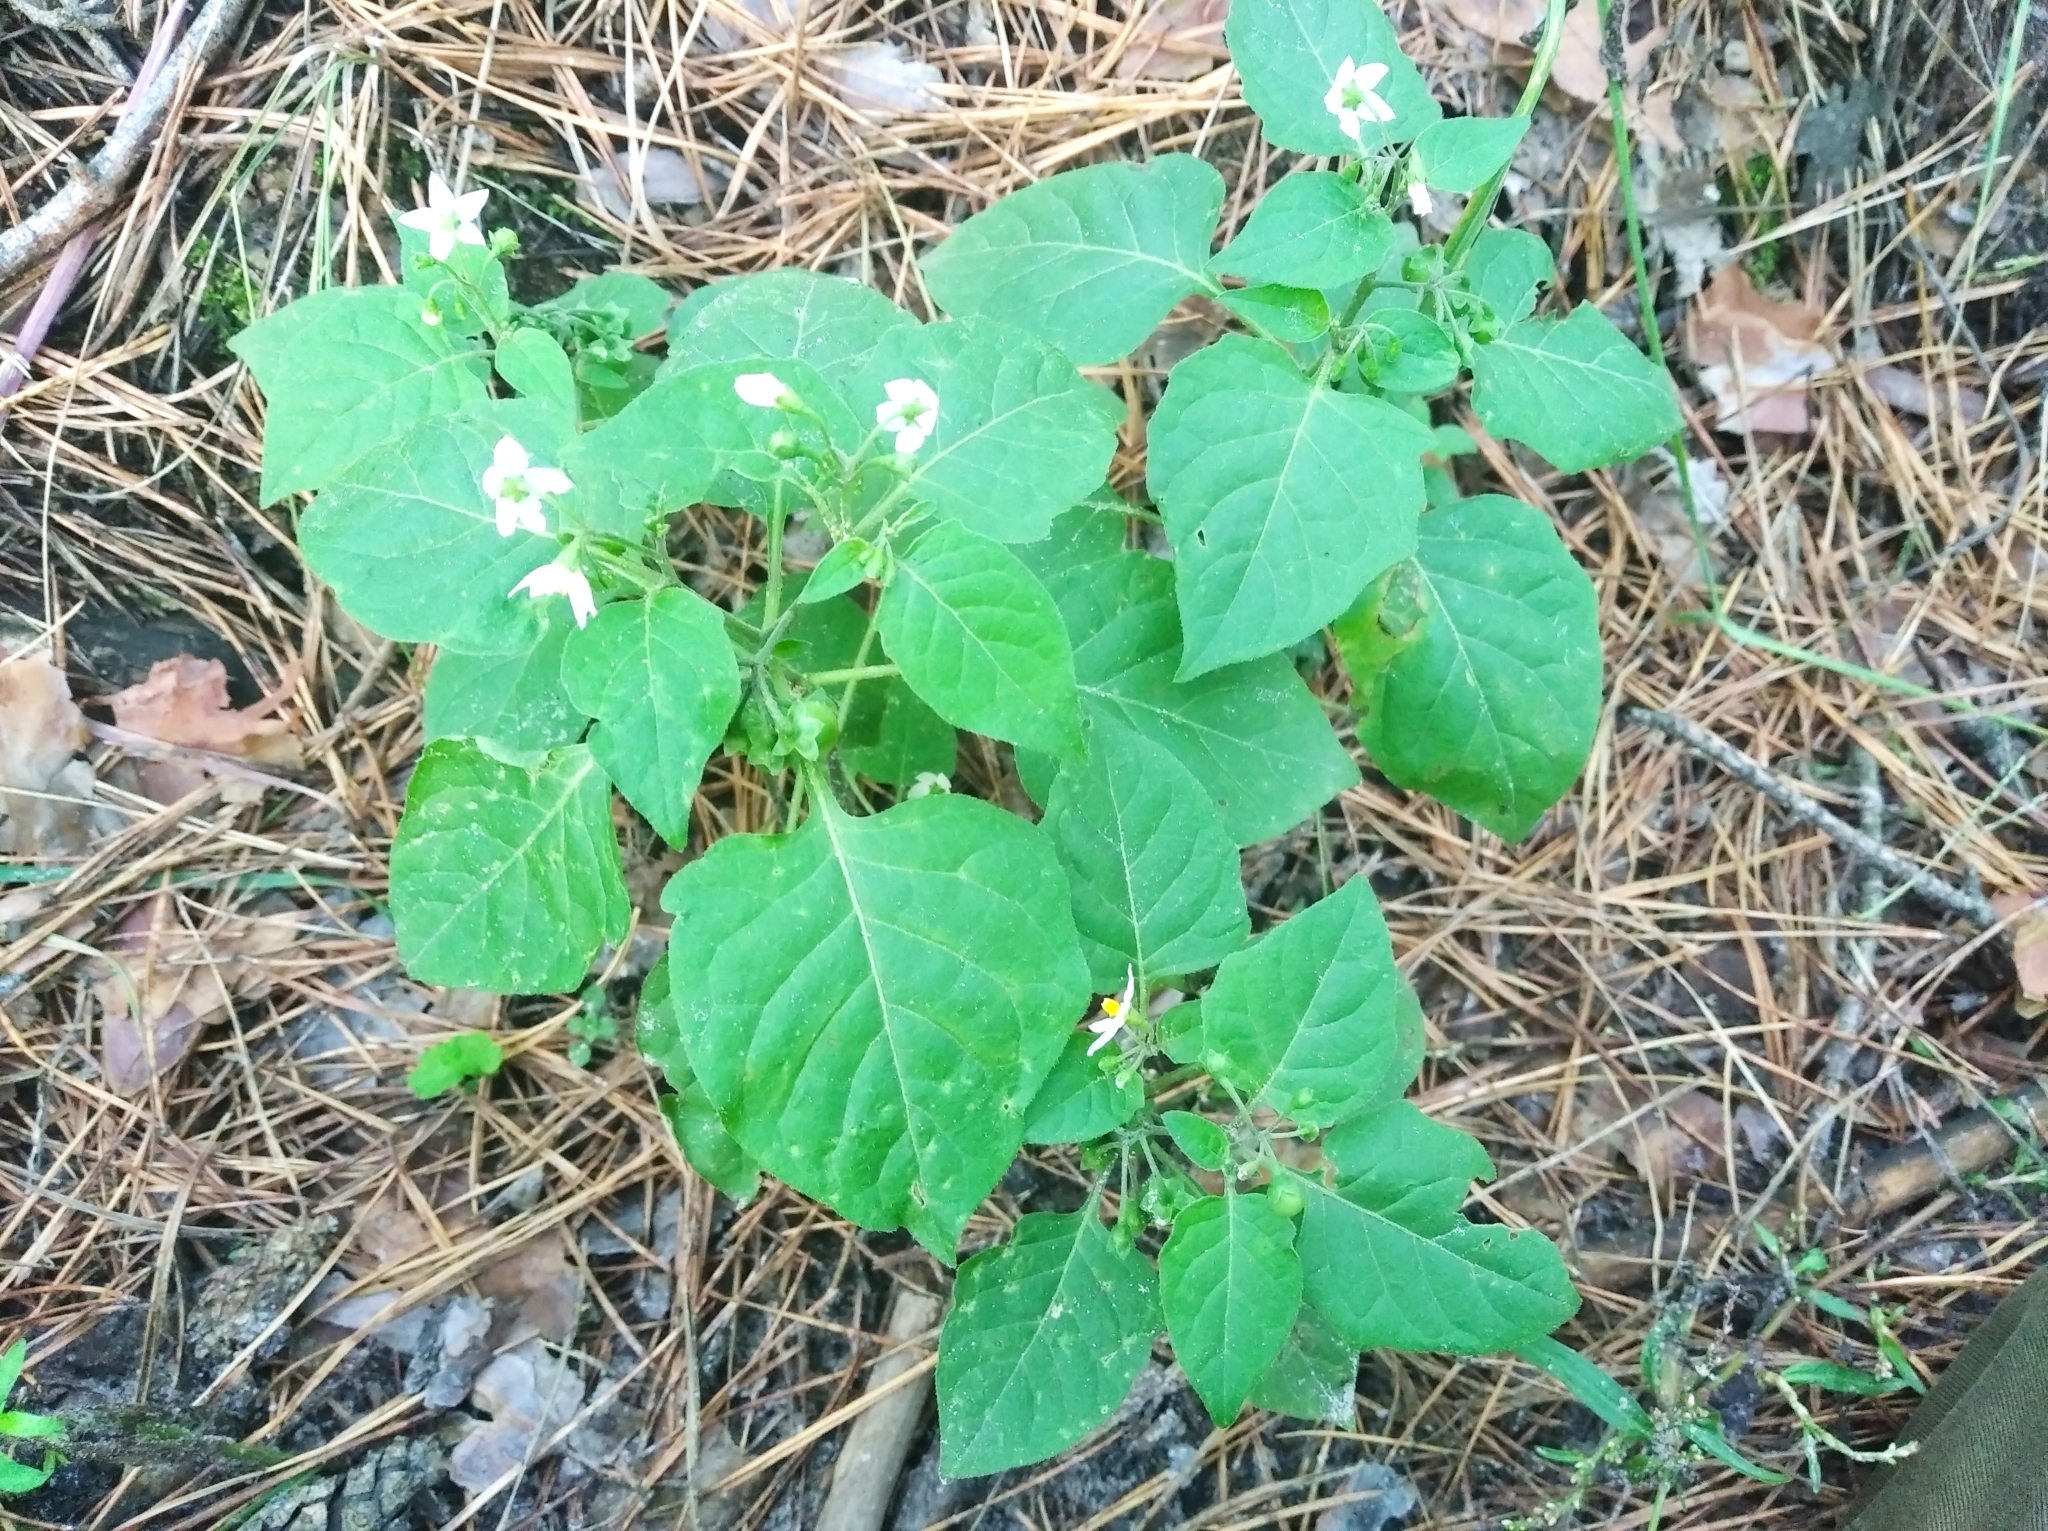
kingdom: Plantae
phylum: Tracheophyta
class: Magnoliopsida
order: Solanales
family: Solanaceae
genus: Solanum
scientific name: Solanum nigrum
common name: Black nightshade
